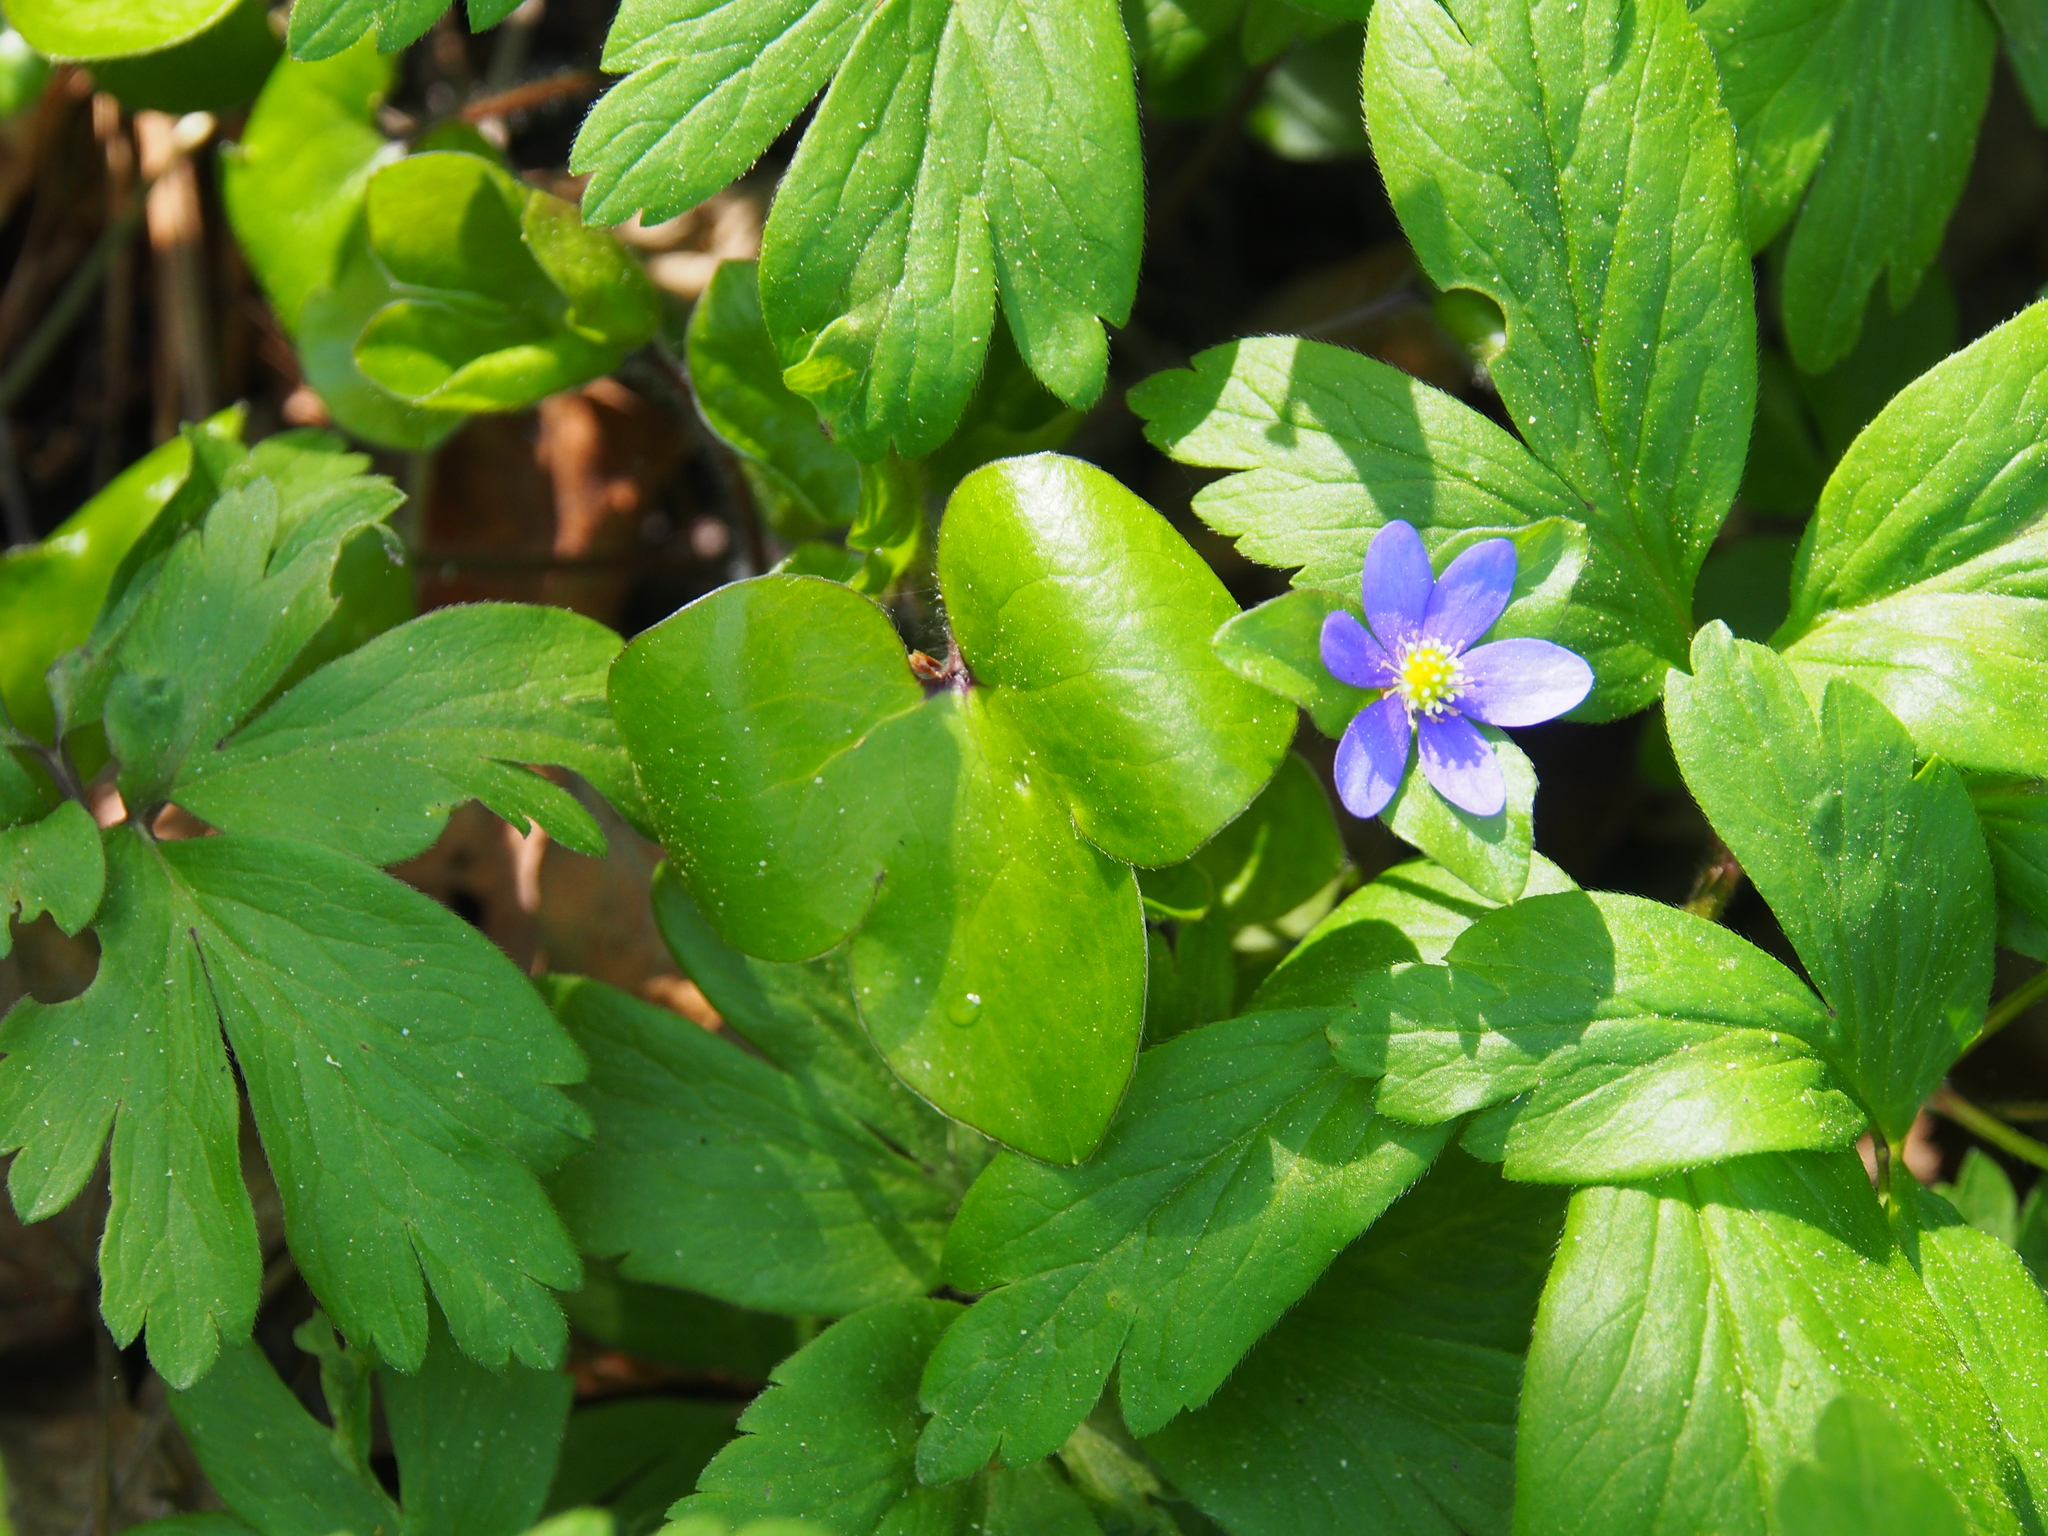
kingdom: Plantae
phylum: Tracheophyta
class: Magnoliopsida
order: Ranunculales
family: Ranunculaceae
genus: Hepatica
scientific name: Hepatica nobilis
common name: Liverleaf
